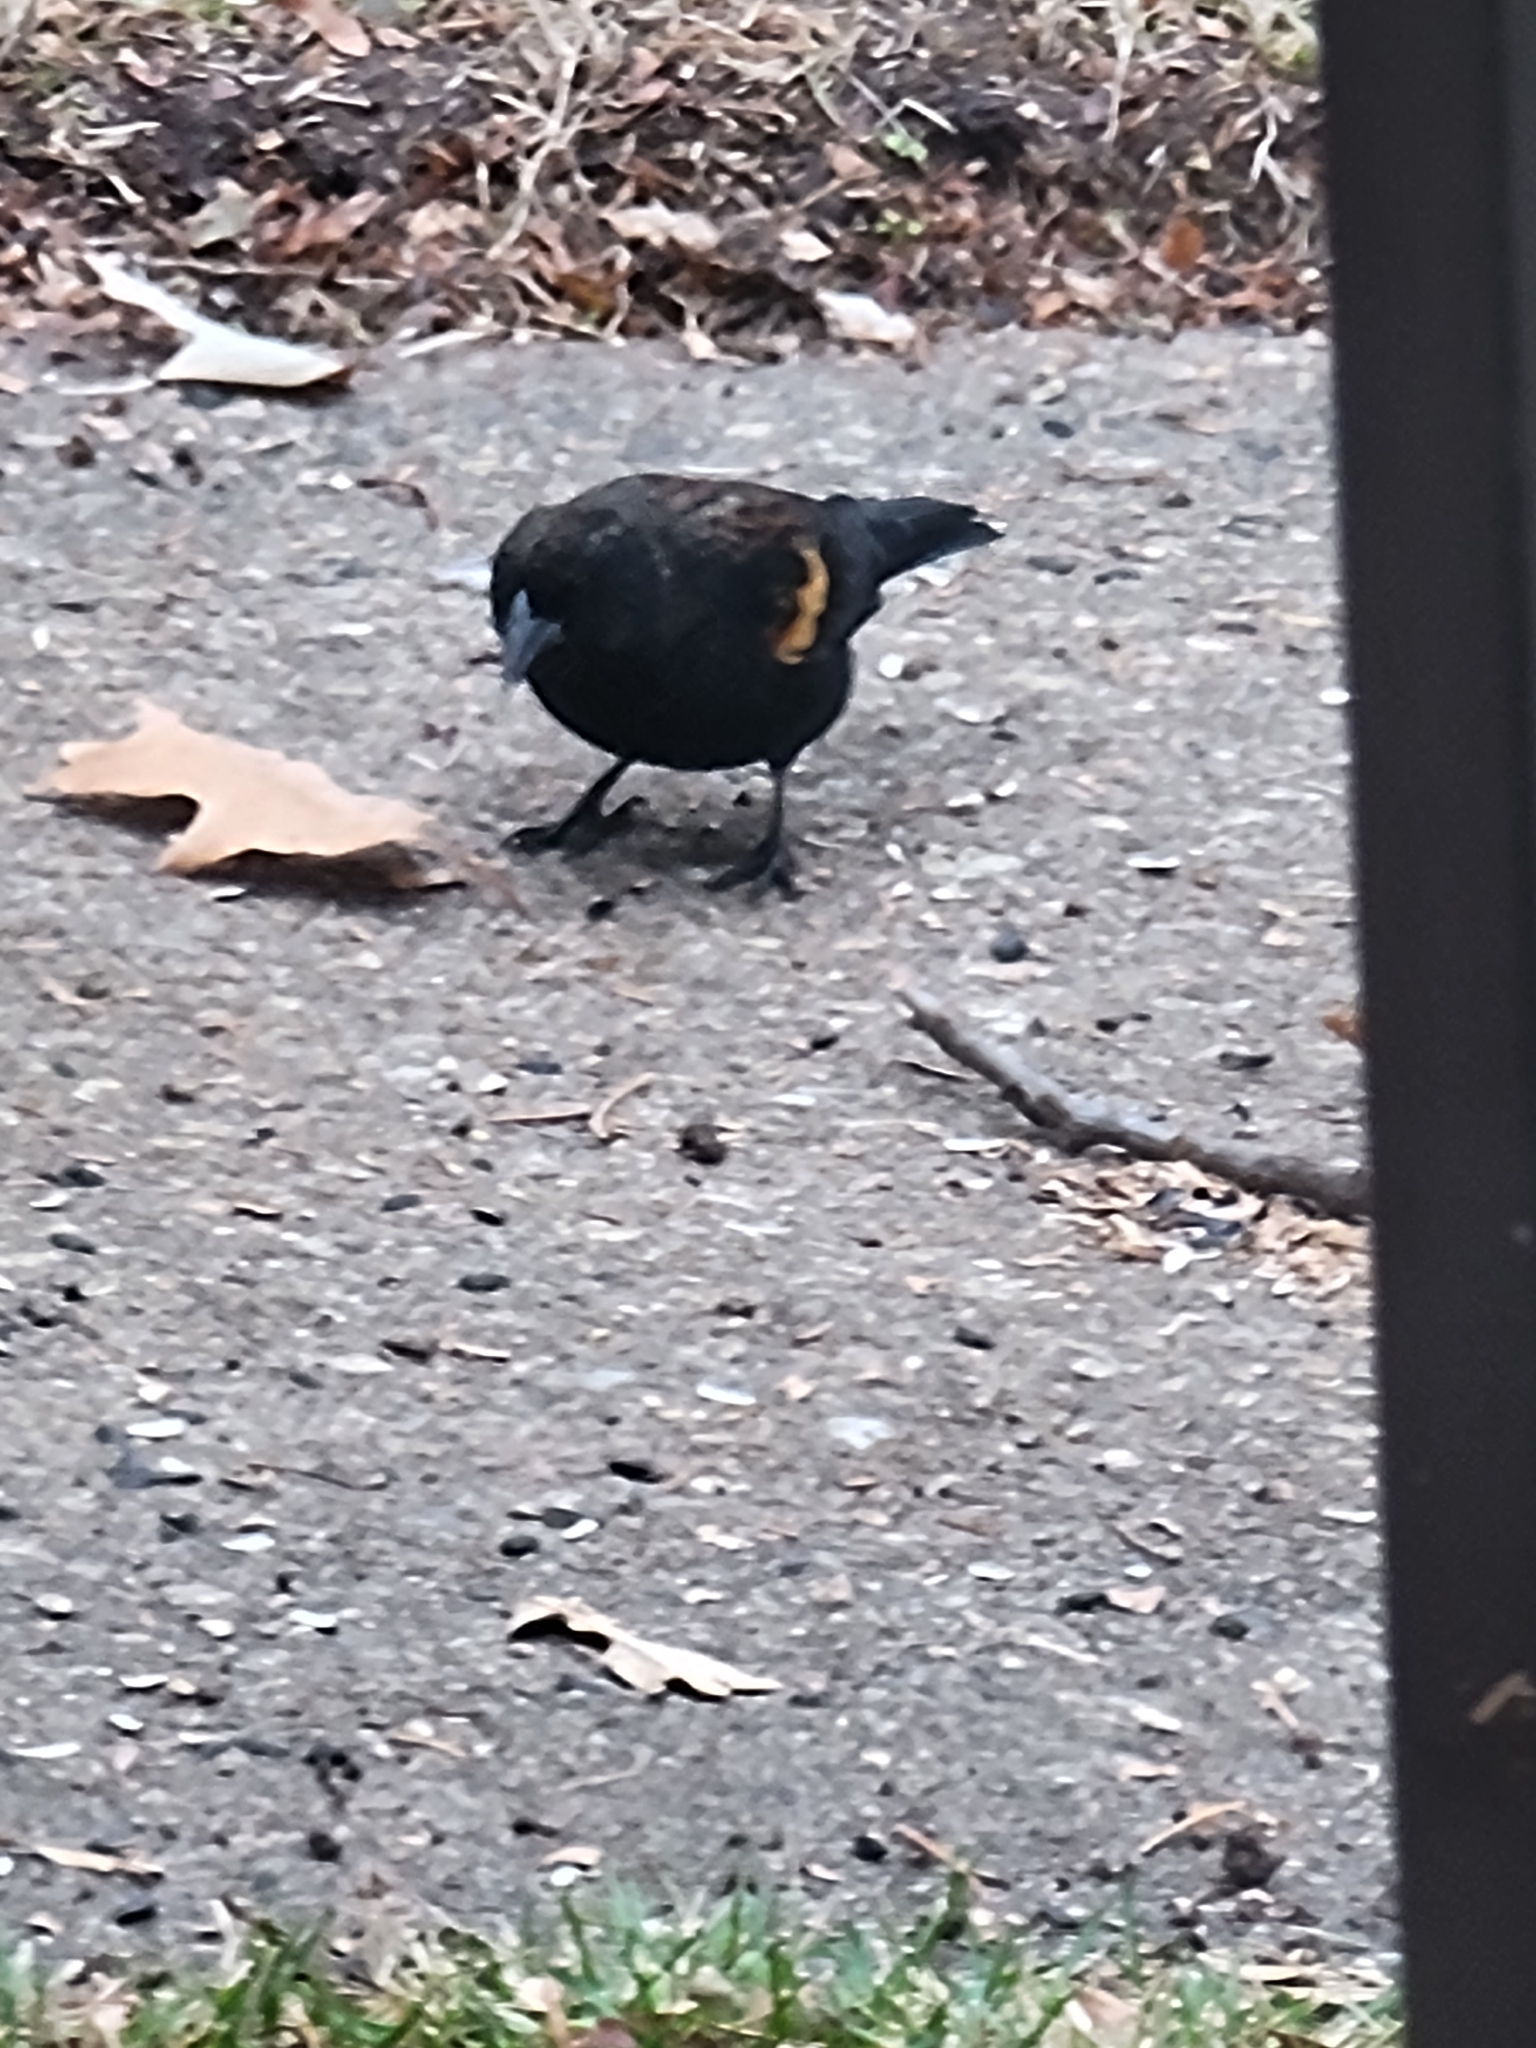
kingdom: Animalia
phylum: Chordata
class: Aves
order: Passeriformes
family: Icteridae
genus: Agelaius
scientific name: Agelaius phoeniceus
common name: Red-winged blackbird
